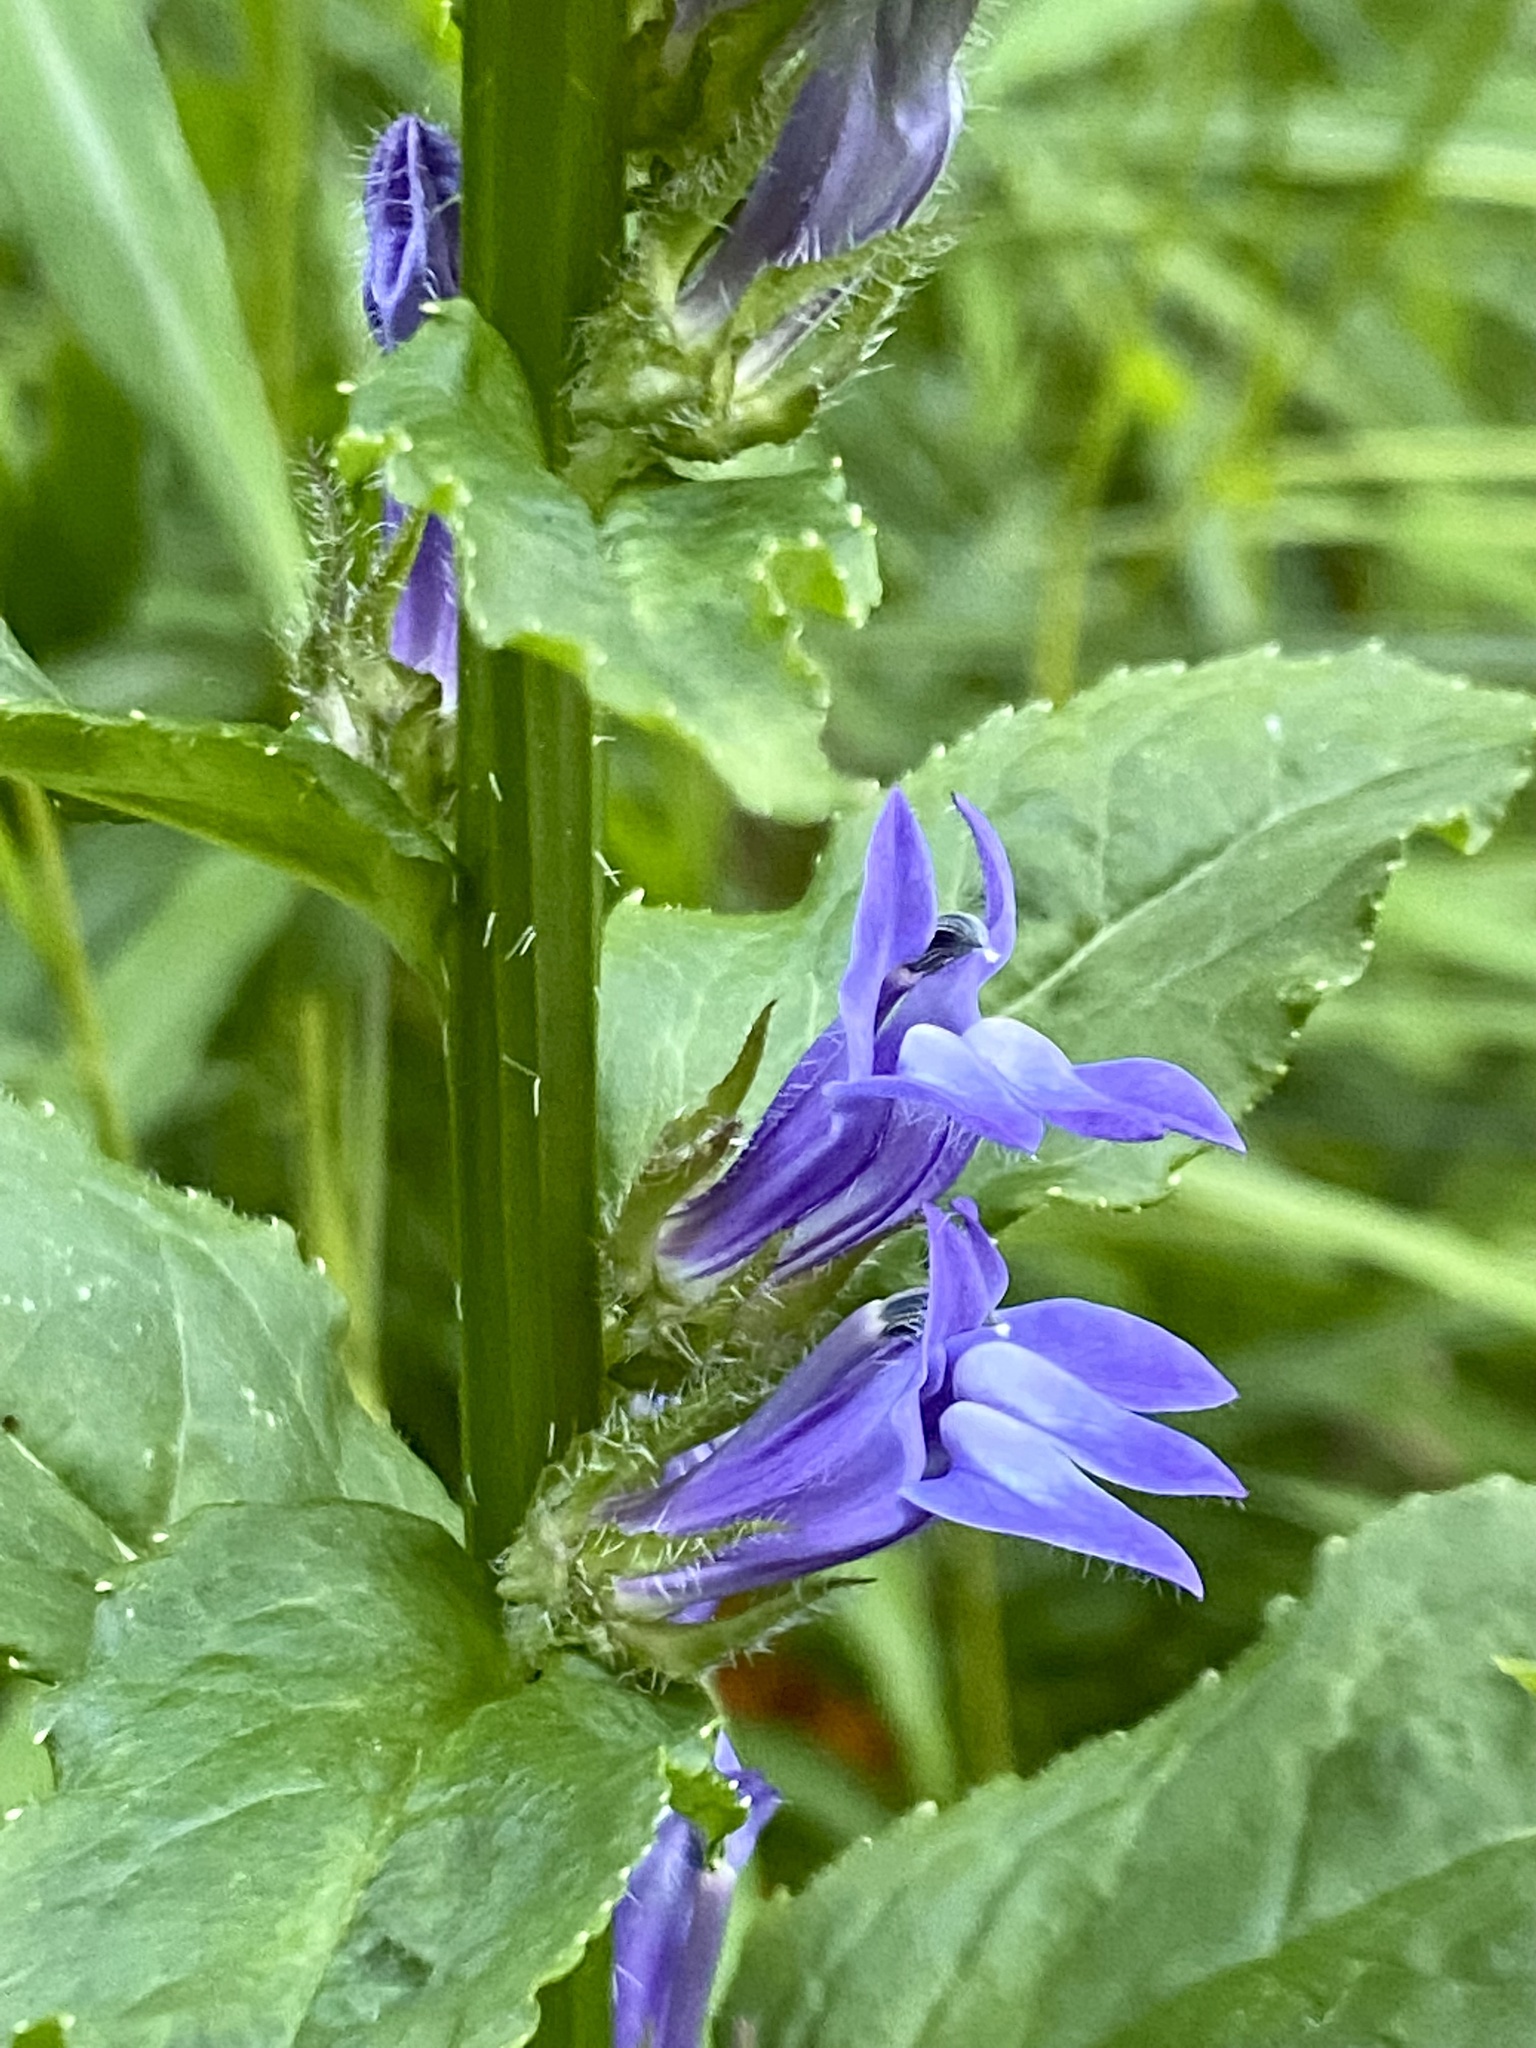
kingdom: Plantae
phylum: Tracheophyta
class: Magnoliopsida
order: Asterales
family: Campanulaceae
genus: Lobelia
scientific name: Lobelia siphilitica
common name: Great lobelia
